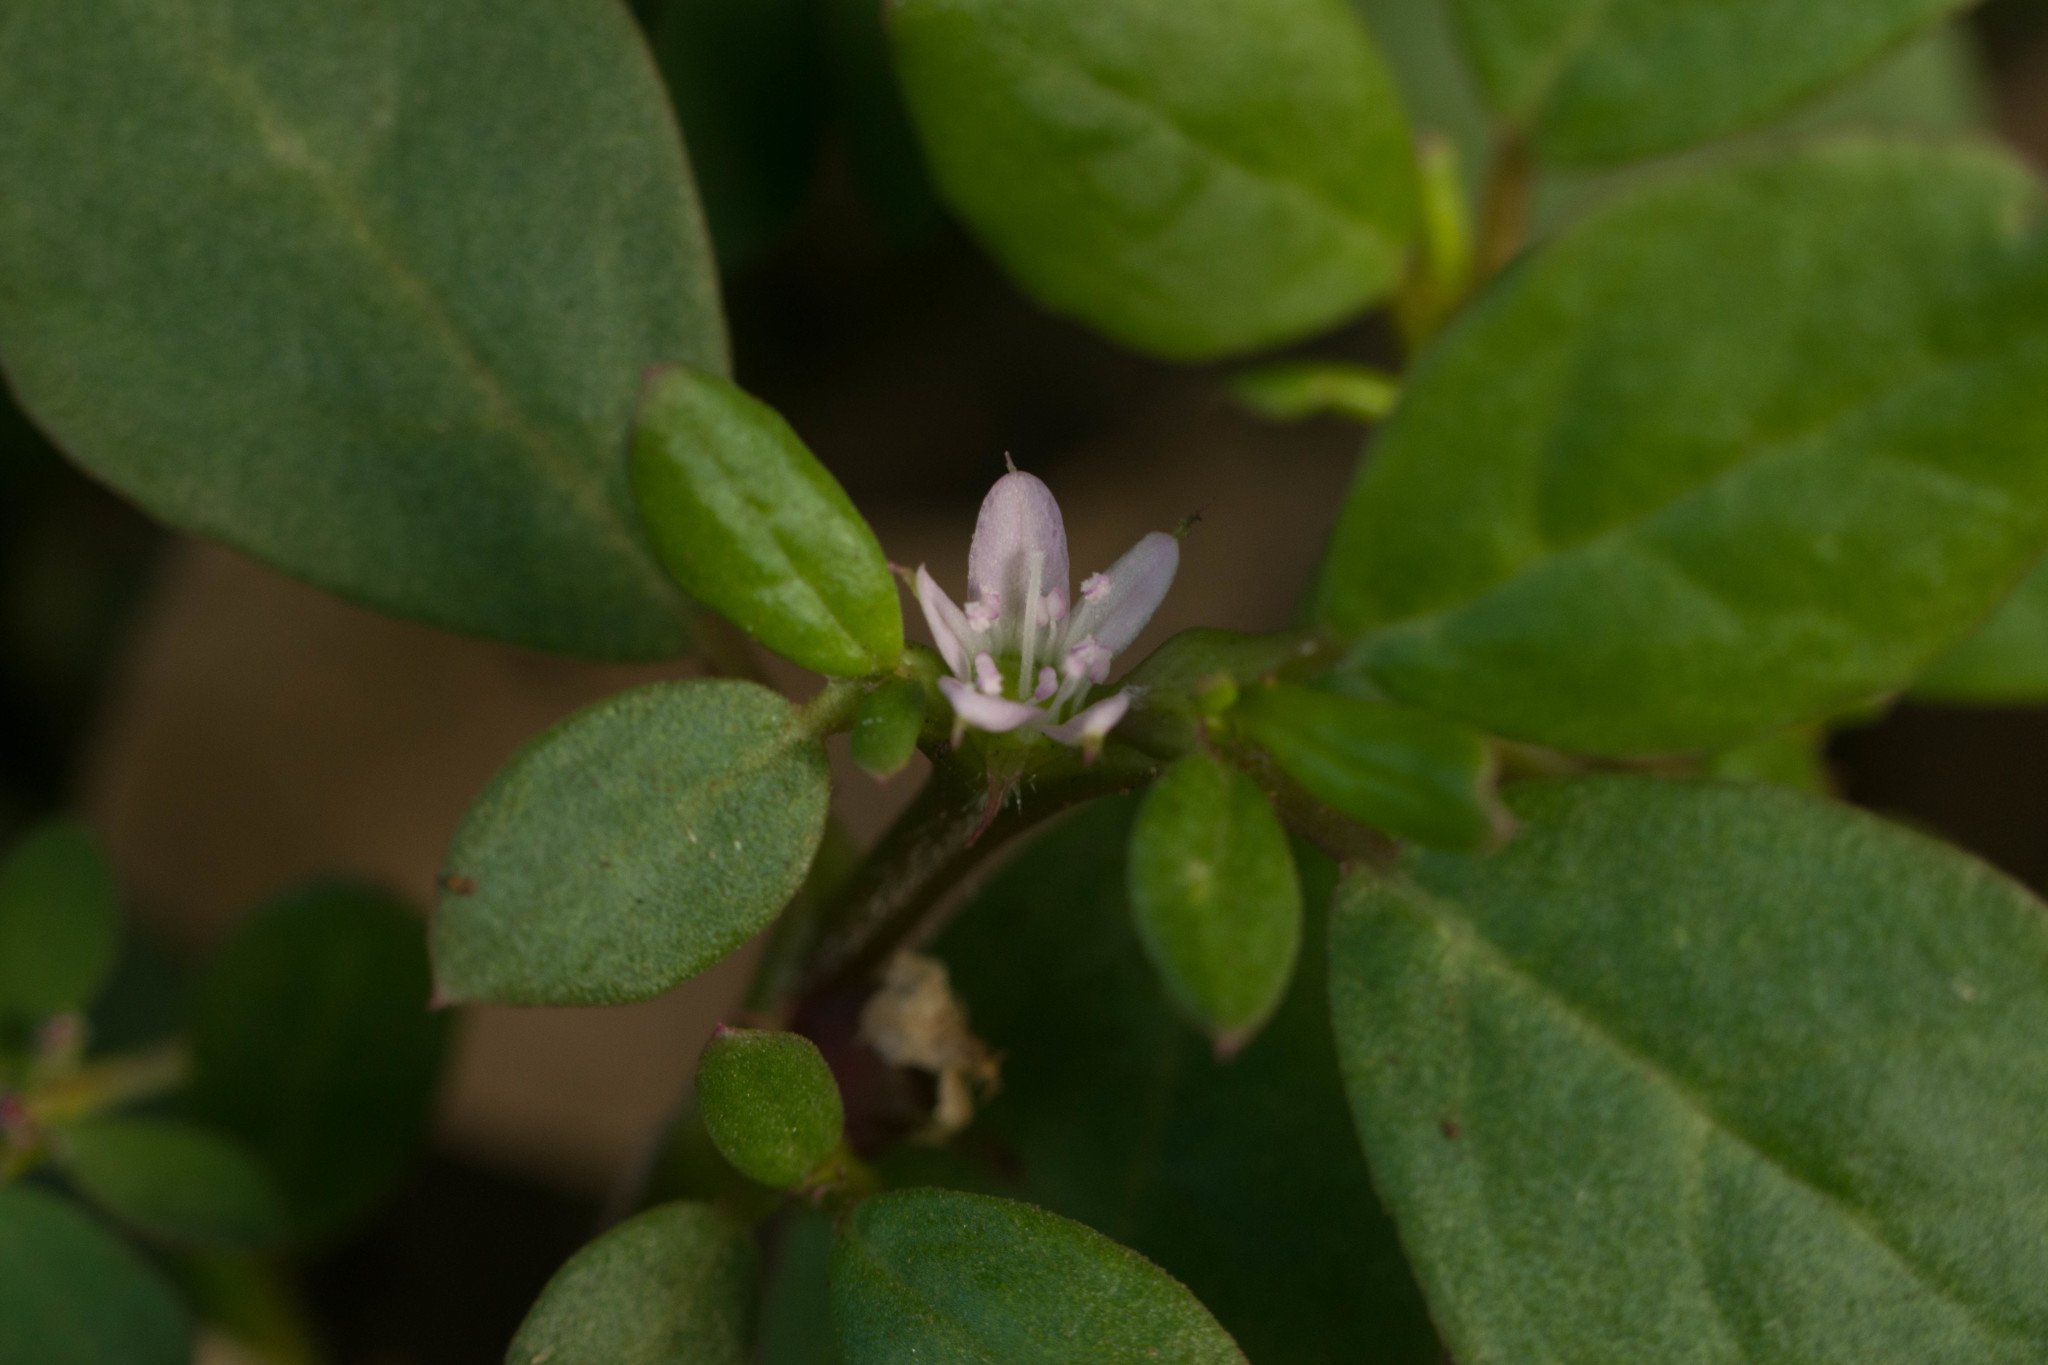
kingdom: Plantae
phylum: Tracheophyta
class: Magnoliopsida
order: Caryophyllales
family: Aizoaceae
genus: Trianthema
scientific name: Trianthema portulacastrum
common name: Desert horsepurslane
